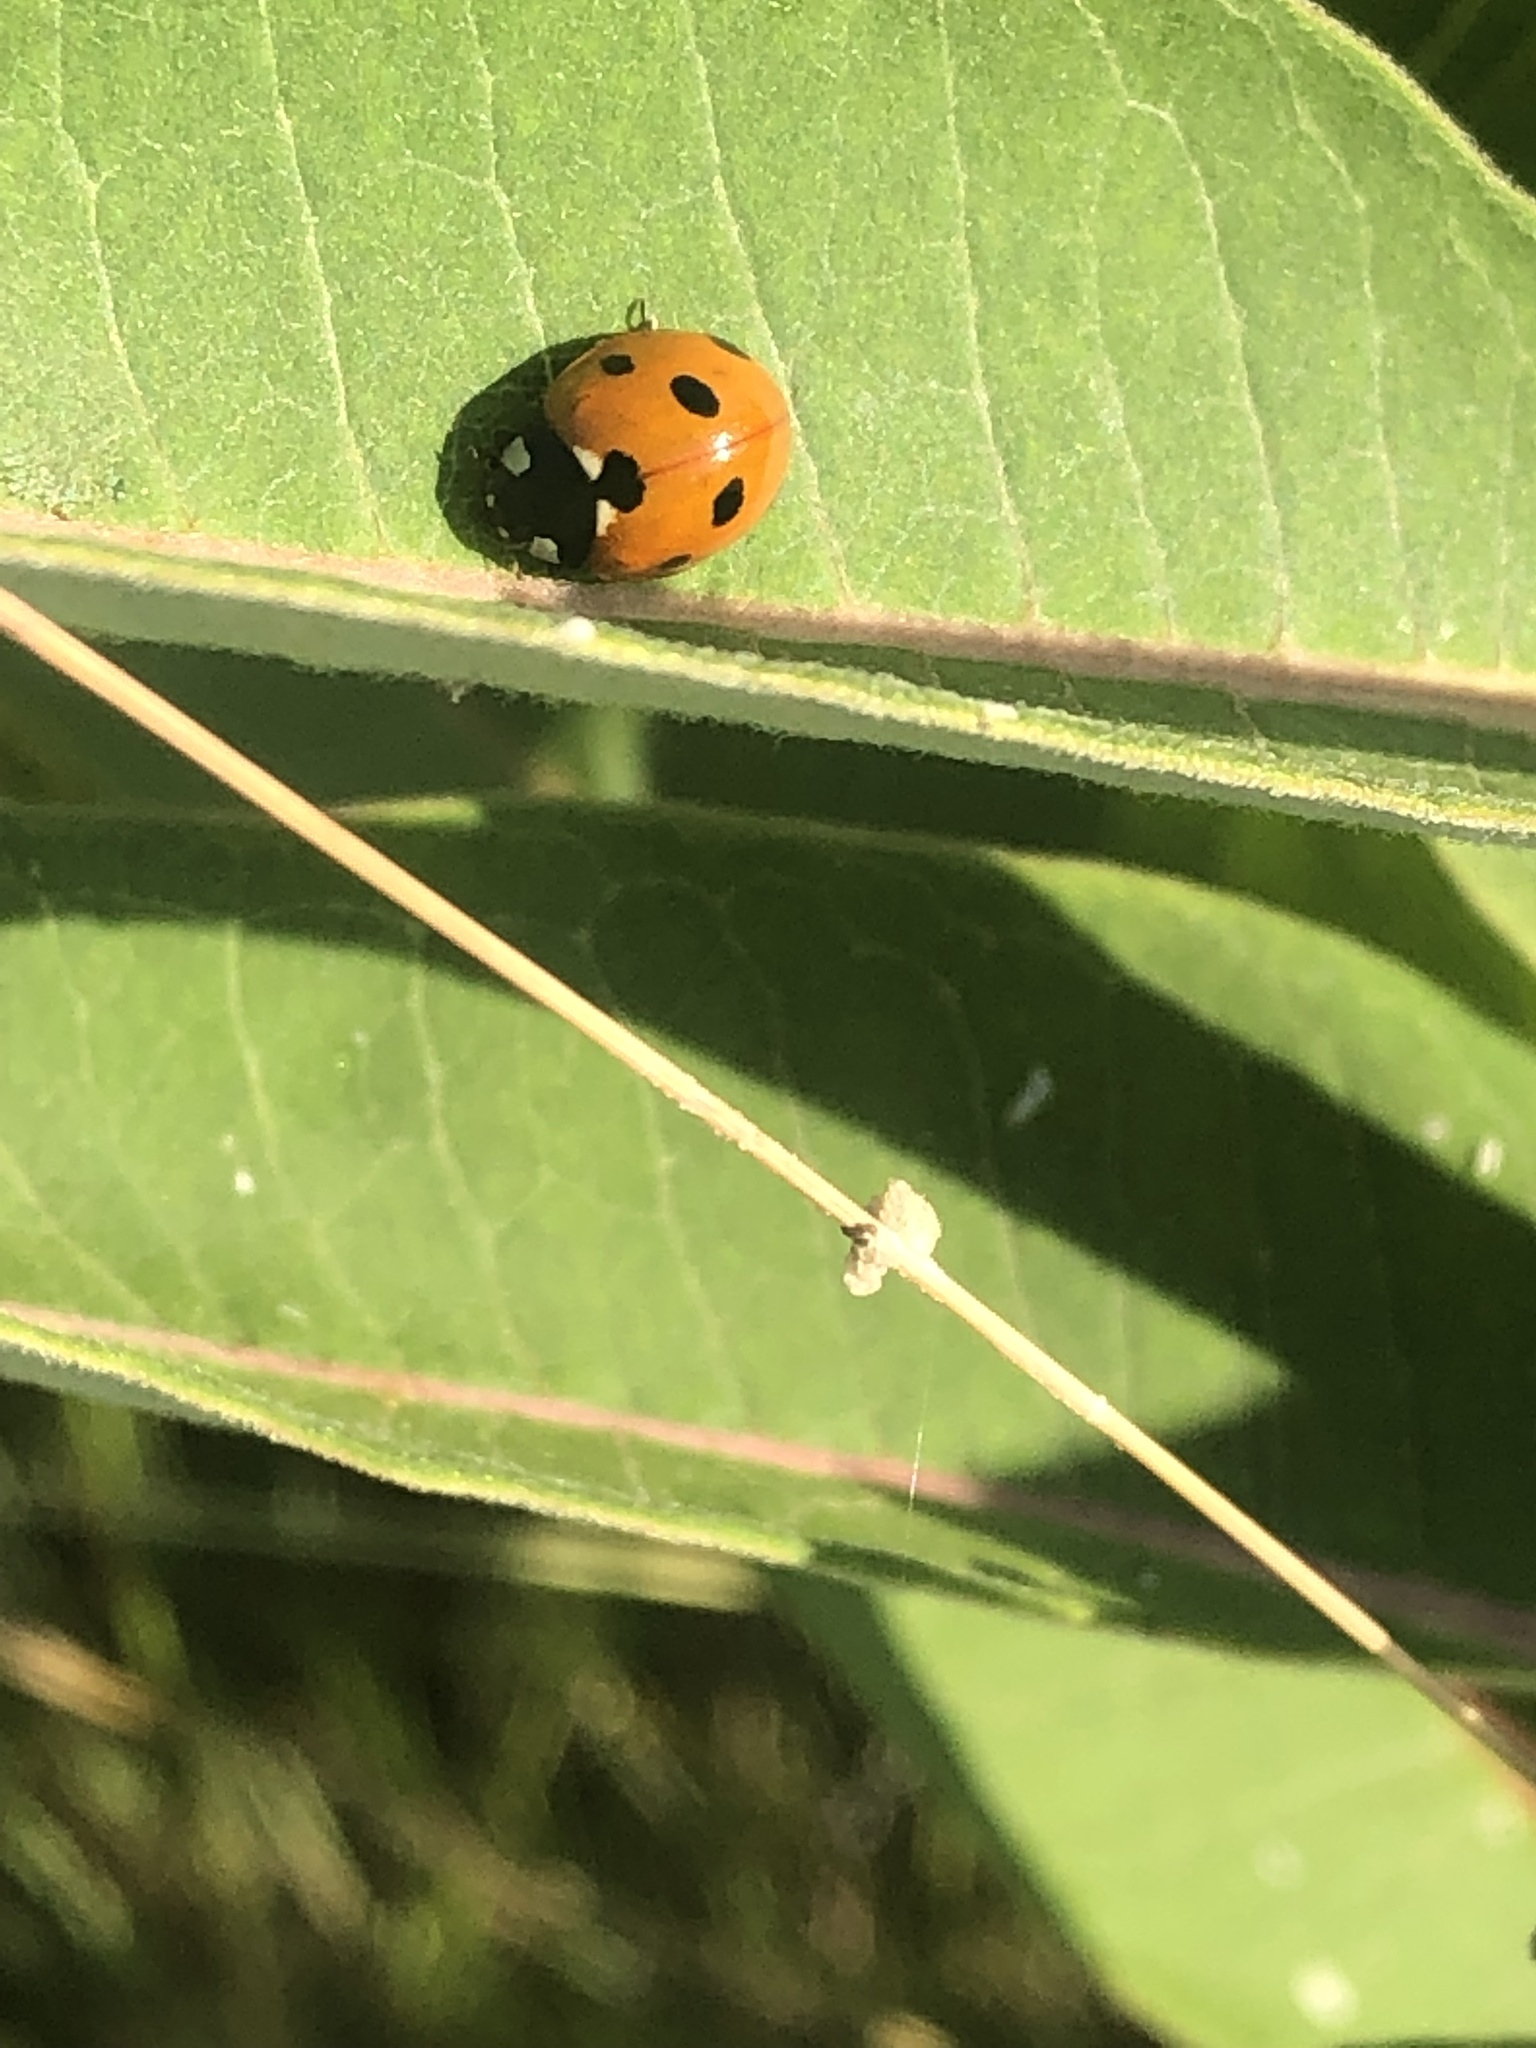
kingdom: Animalia
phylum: Arthropoda
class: Insecta
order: Coleoptera
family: Coccinellidae
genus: Coccinella
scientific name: Coccinella septempunctata
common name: Sevenspotted lady beetle
